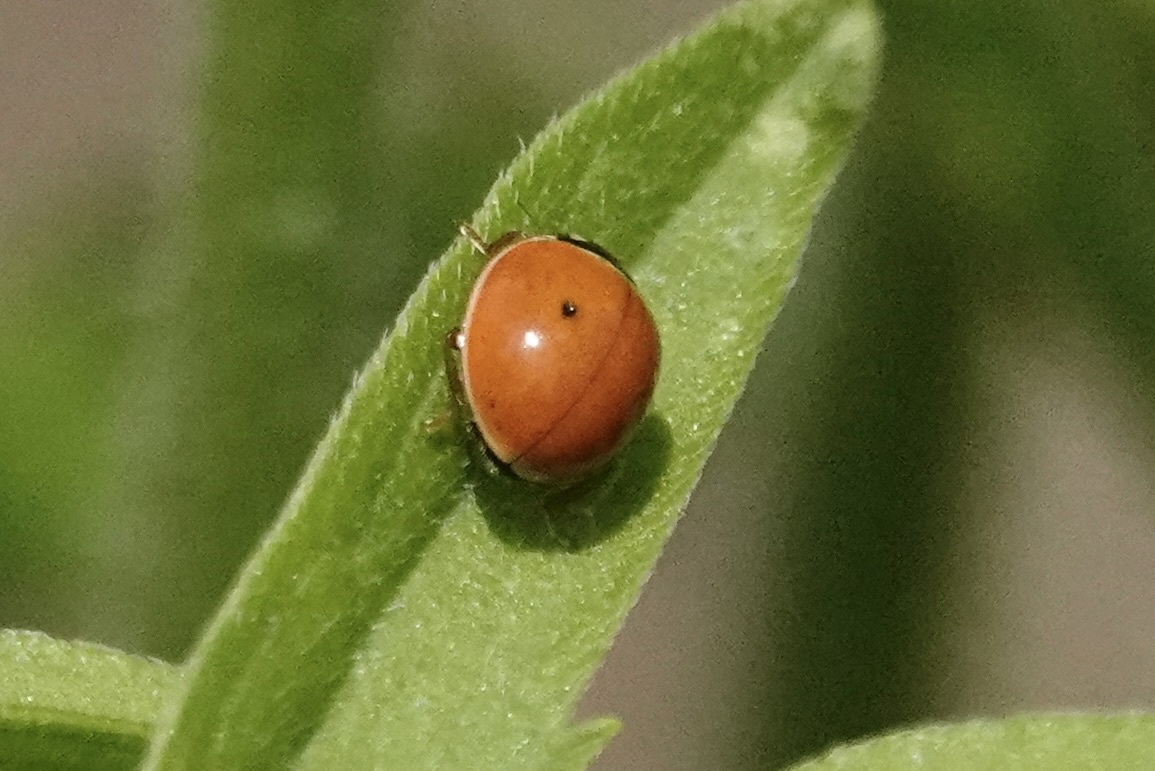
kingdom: Animalia
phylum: Arthropoda
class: Insecta
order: Coleoptera
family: Coccinellidae
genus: Cycloneda
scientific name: Cycloneda munda
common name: Polished lady beetle
